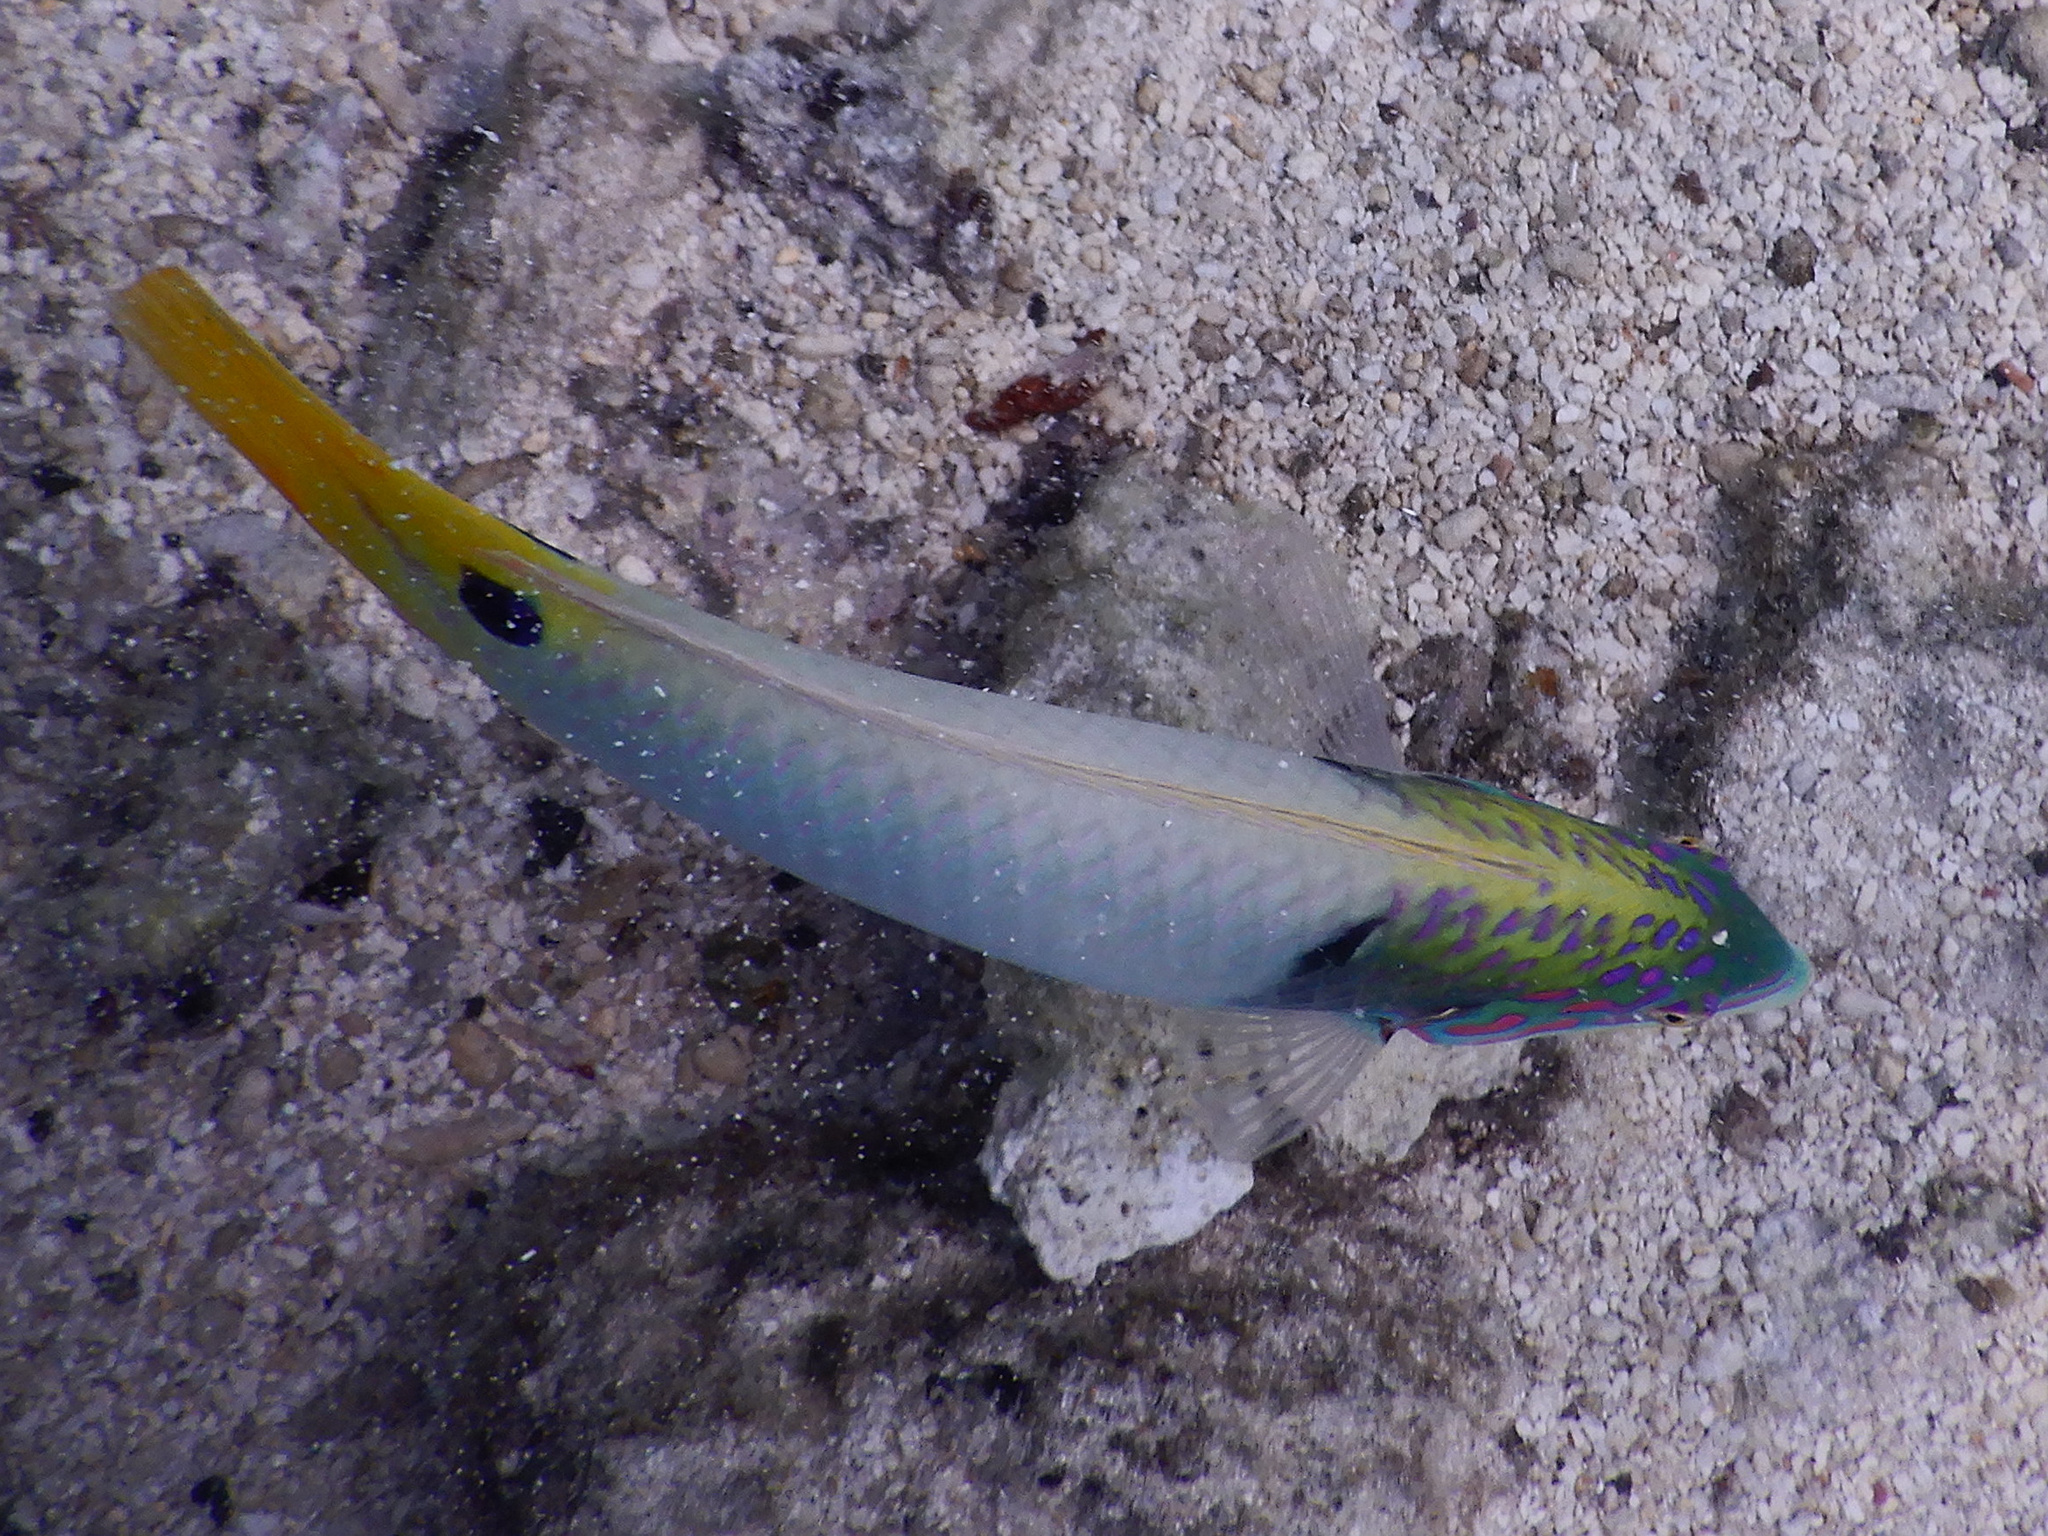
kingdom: Animalia
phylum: Chordata
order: Perciformes
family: Labridae
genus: Halichoeres
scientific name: Halichoeres trimaculatus
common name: Three-spot wrasse
